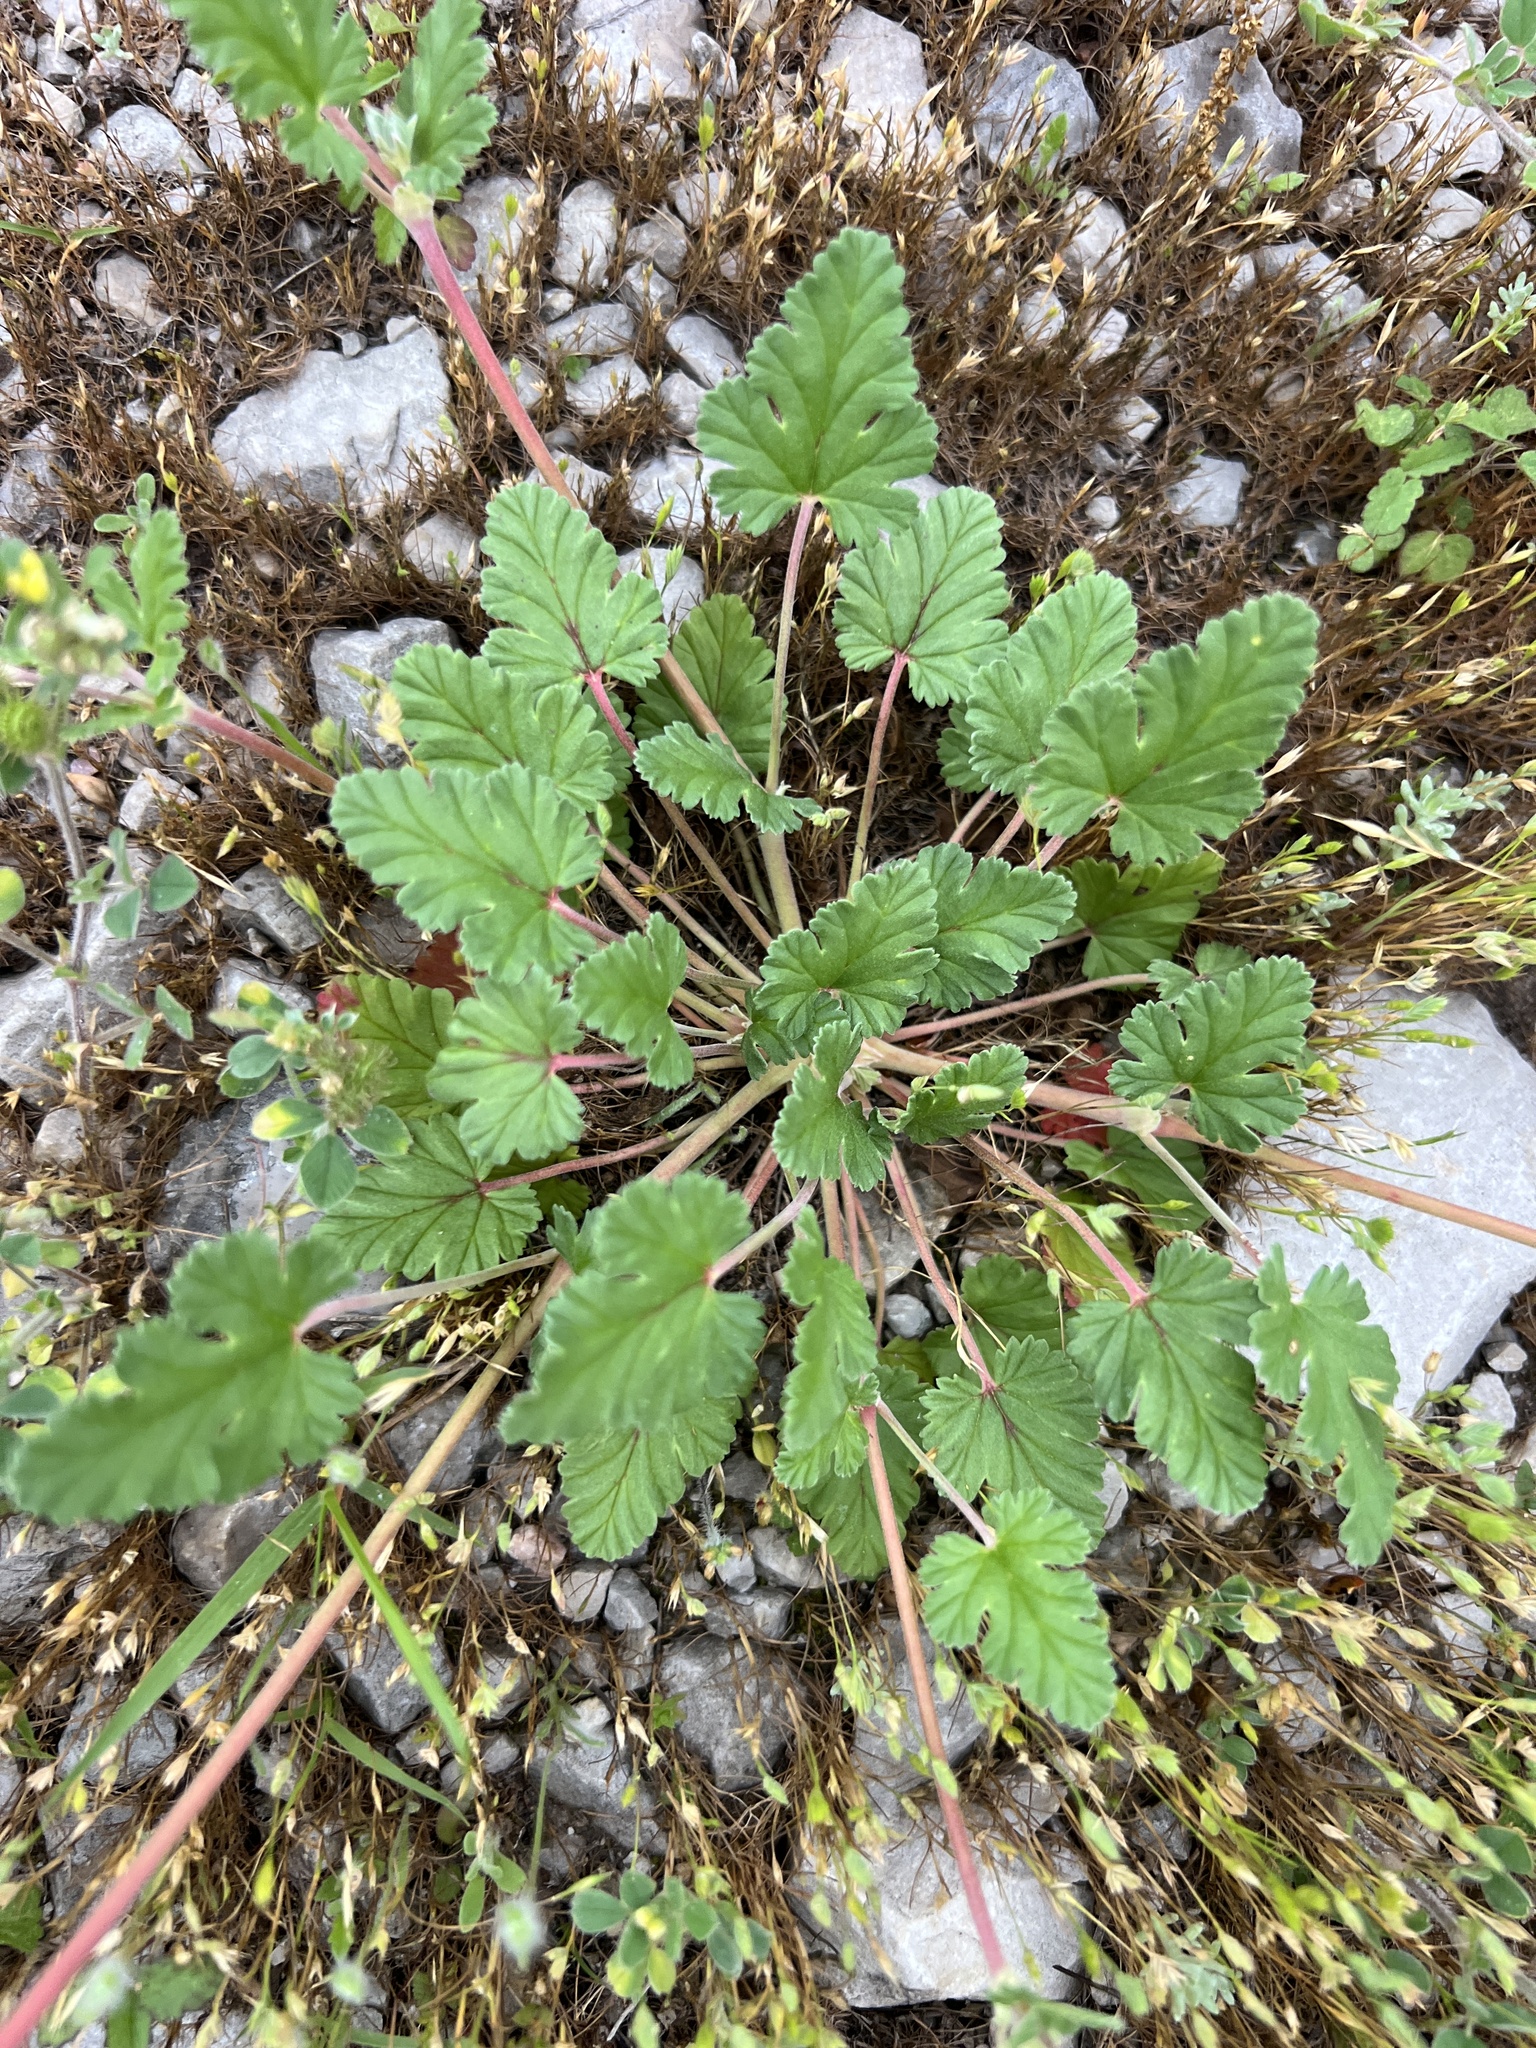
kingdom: Plantae
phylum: Tracheophyta
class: Magnoliopsida
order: Geraniales
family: Geraniaceae
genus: Erodium
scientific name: Erodium texanum
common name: Texas stork's-bill
